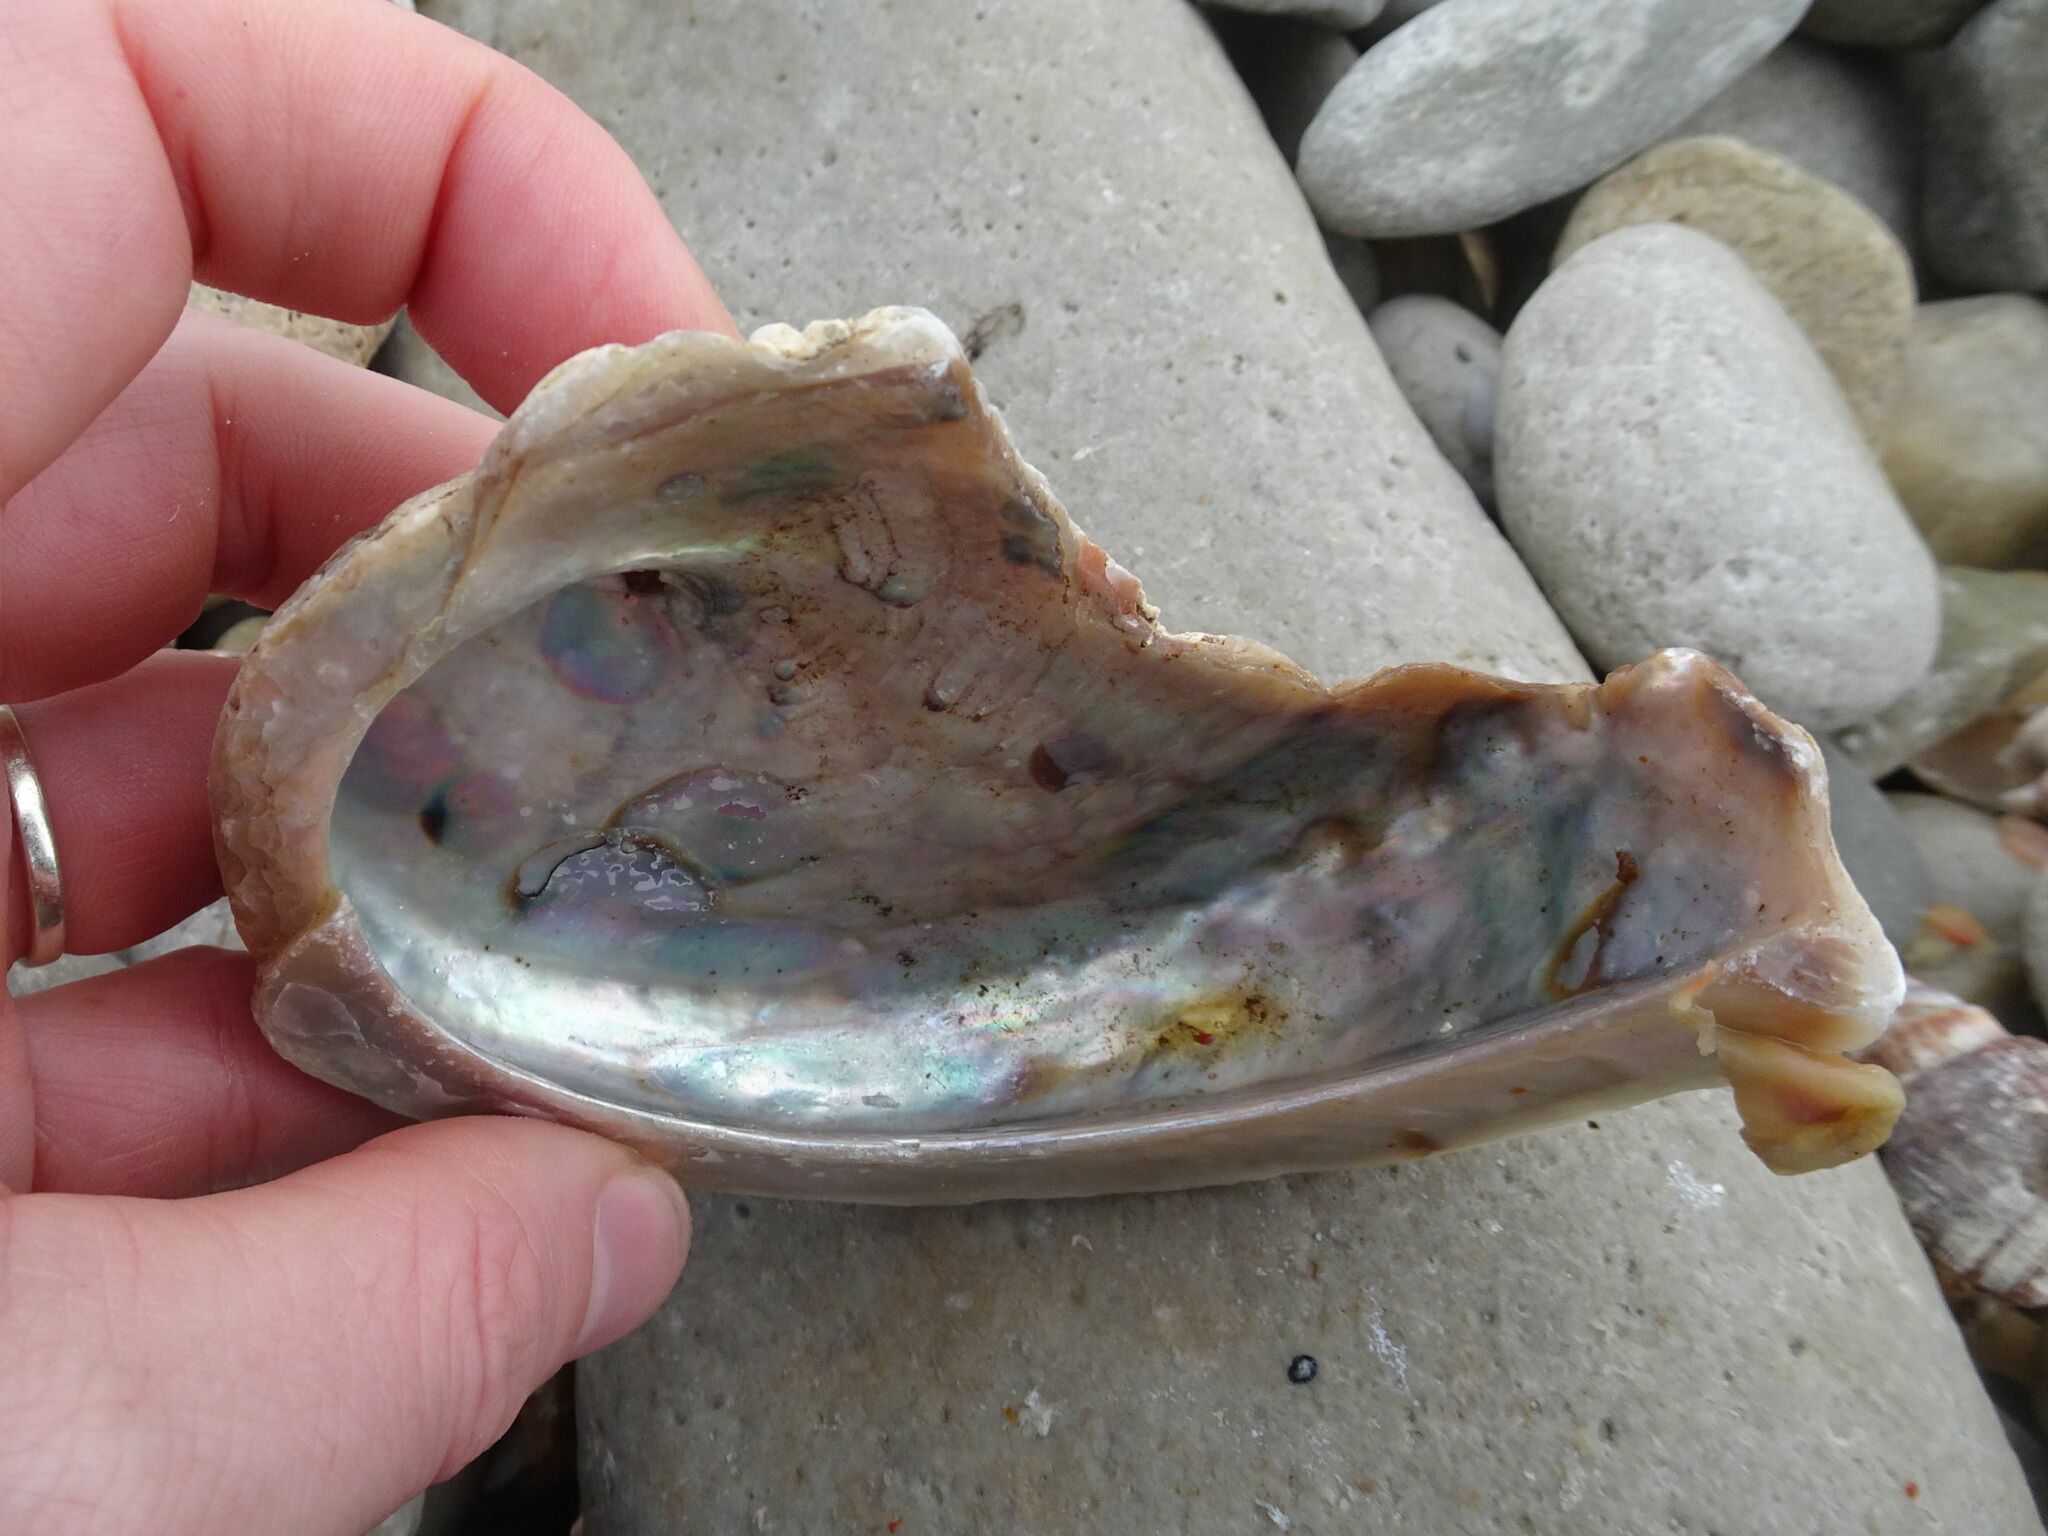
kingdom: Animalia
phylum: Mollusca
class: Gastropoda
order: Lepetellida
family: Haliotidae
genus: Haliotis
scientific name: Haliotis midae
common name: Perlemoen
